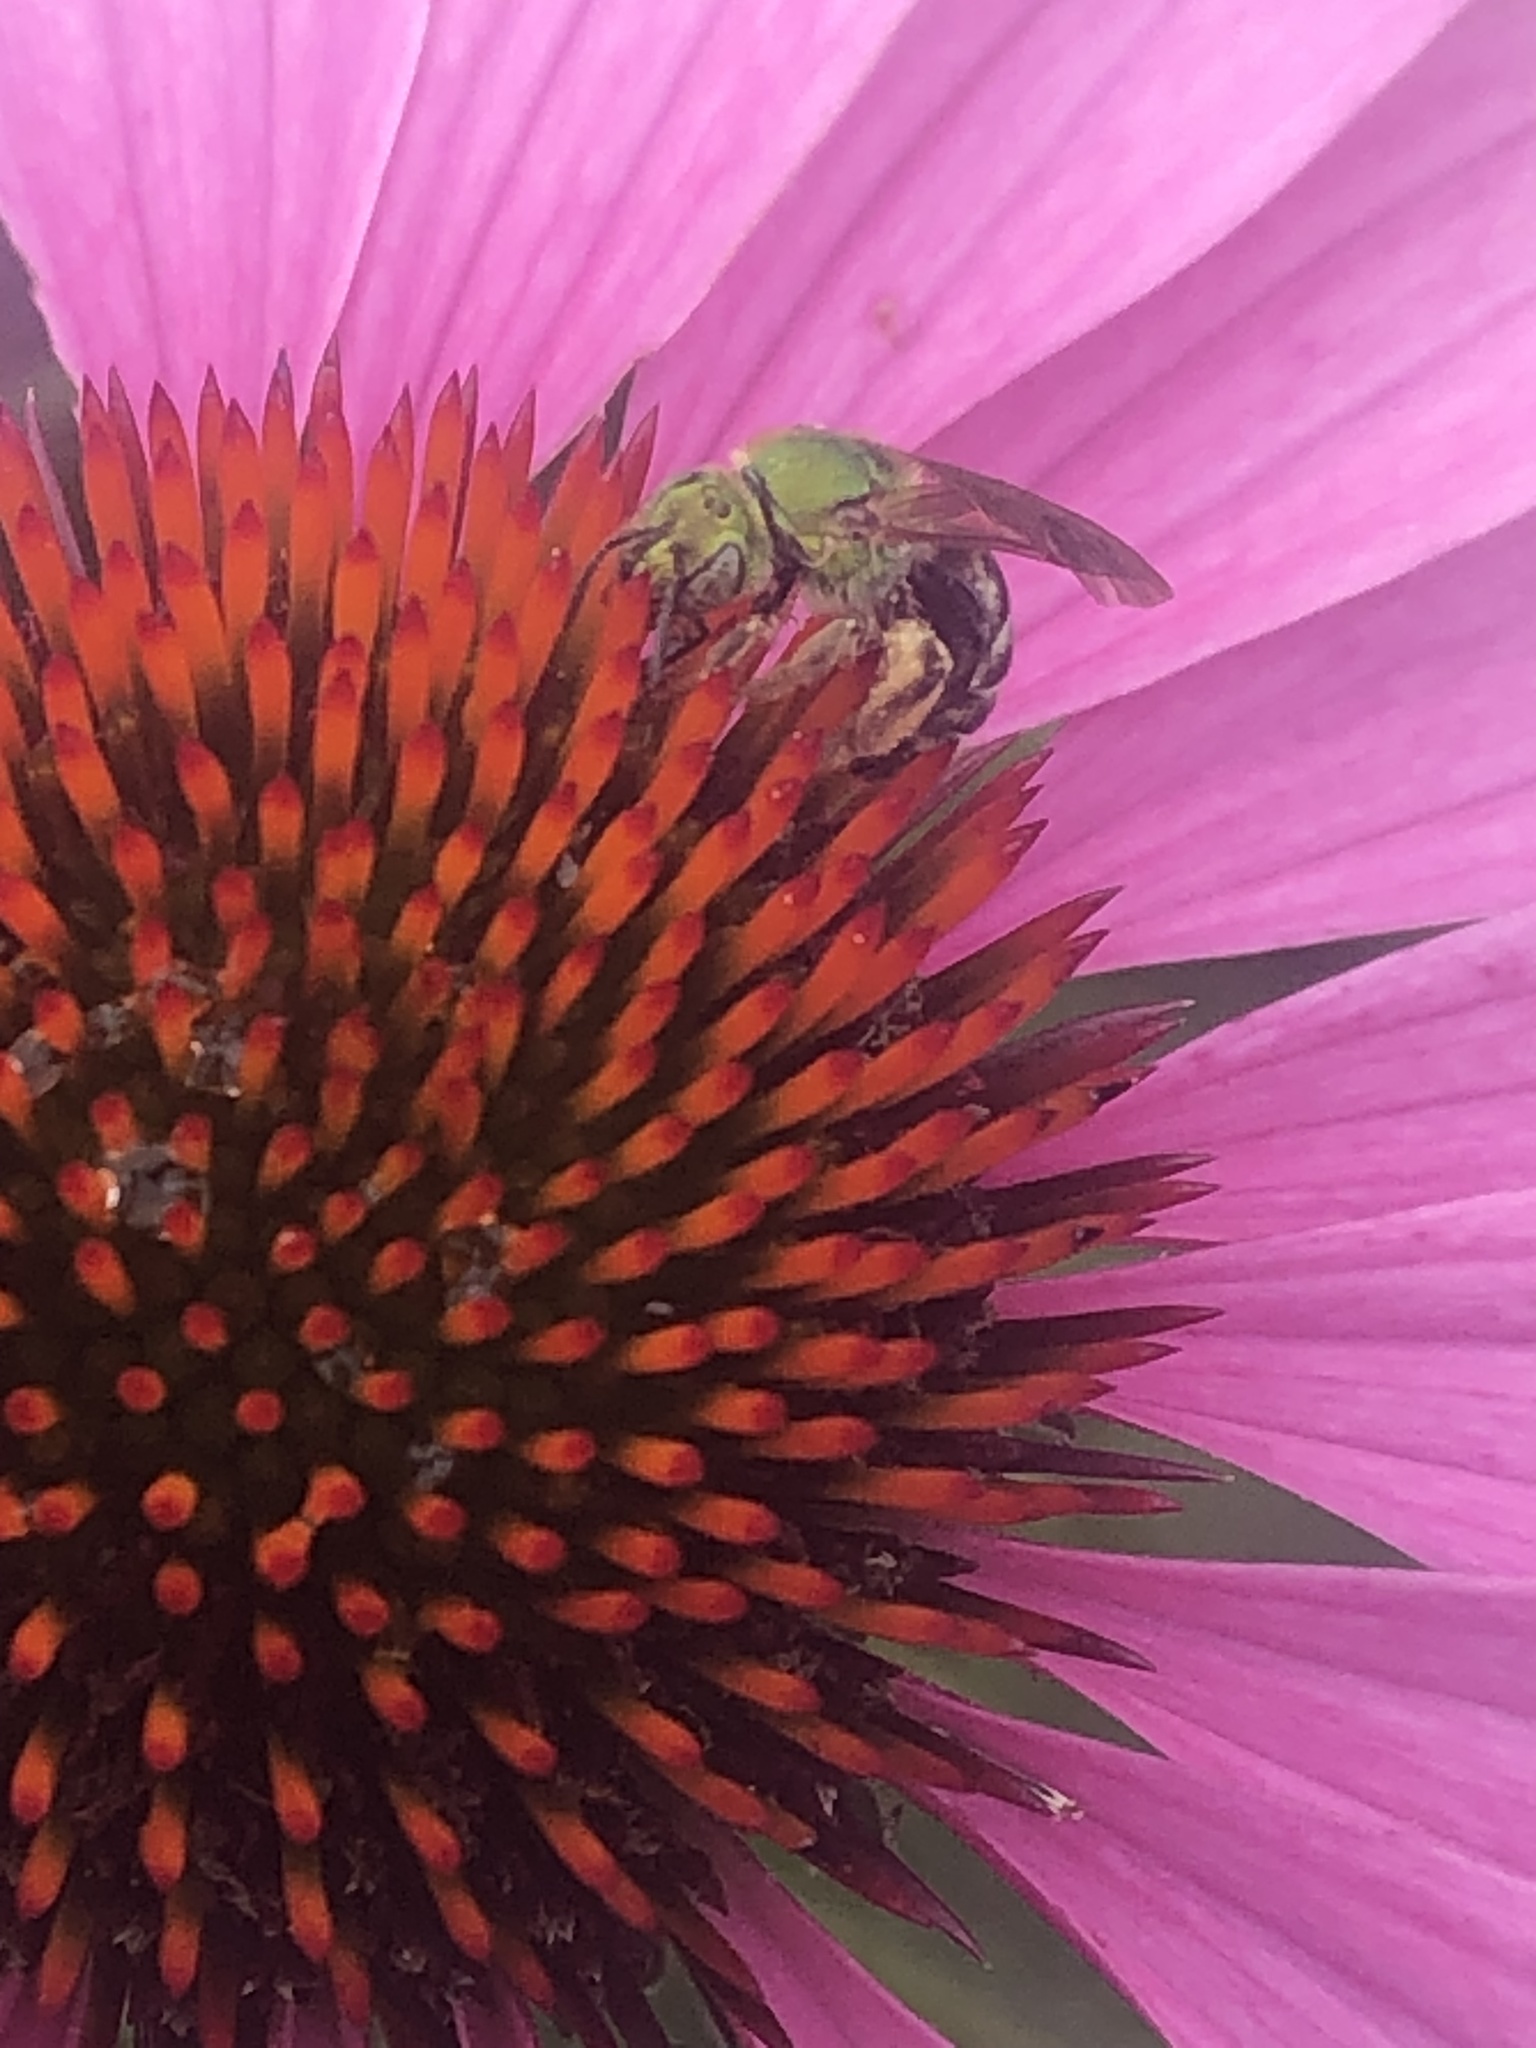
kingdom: Animalia
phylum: Arthropoda
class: Insecta
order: Hymenoptera
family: Halictidae
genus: Agapostemon
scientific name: Agapostemon virescens
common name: Bicolored striped sweat bee
